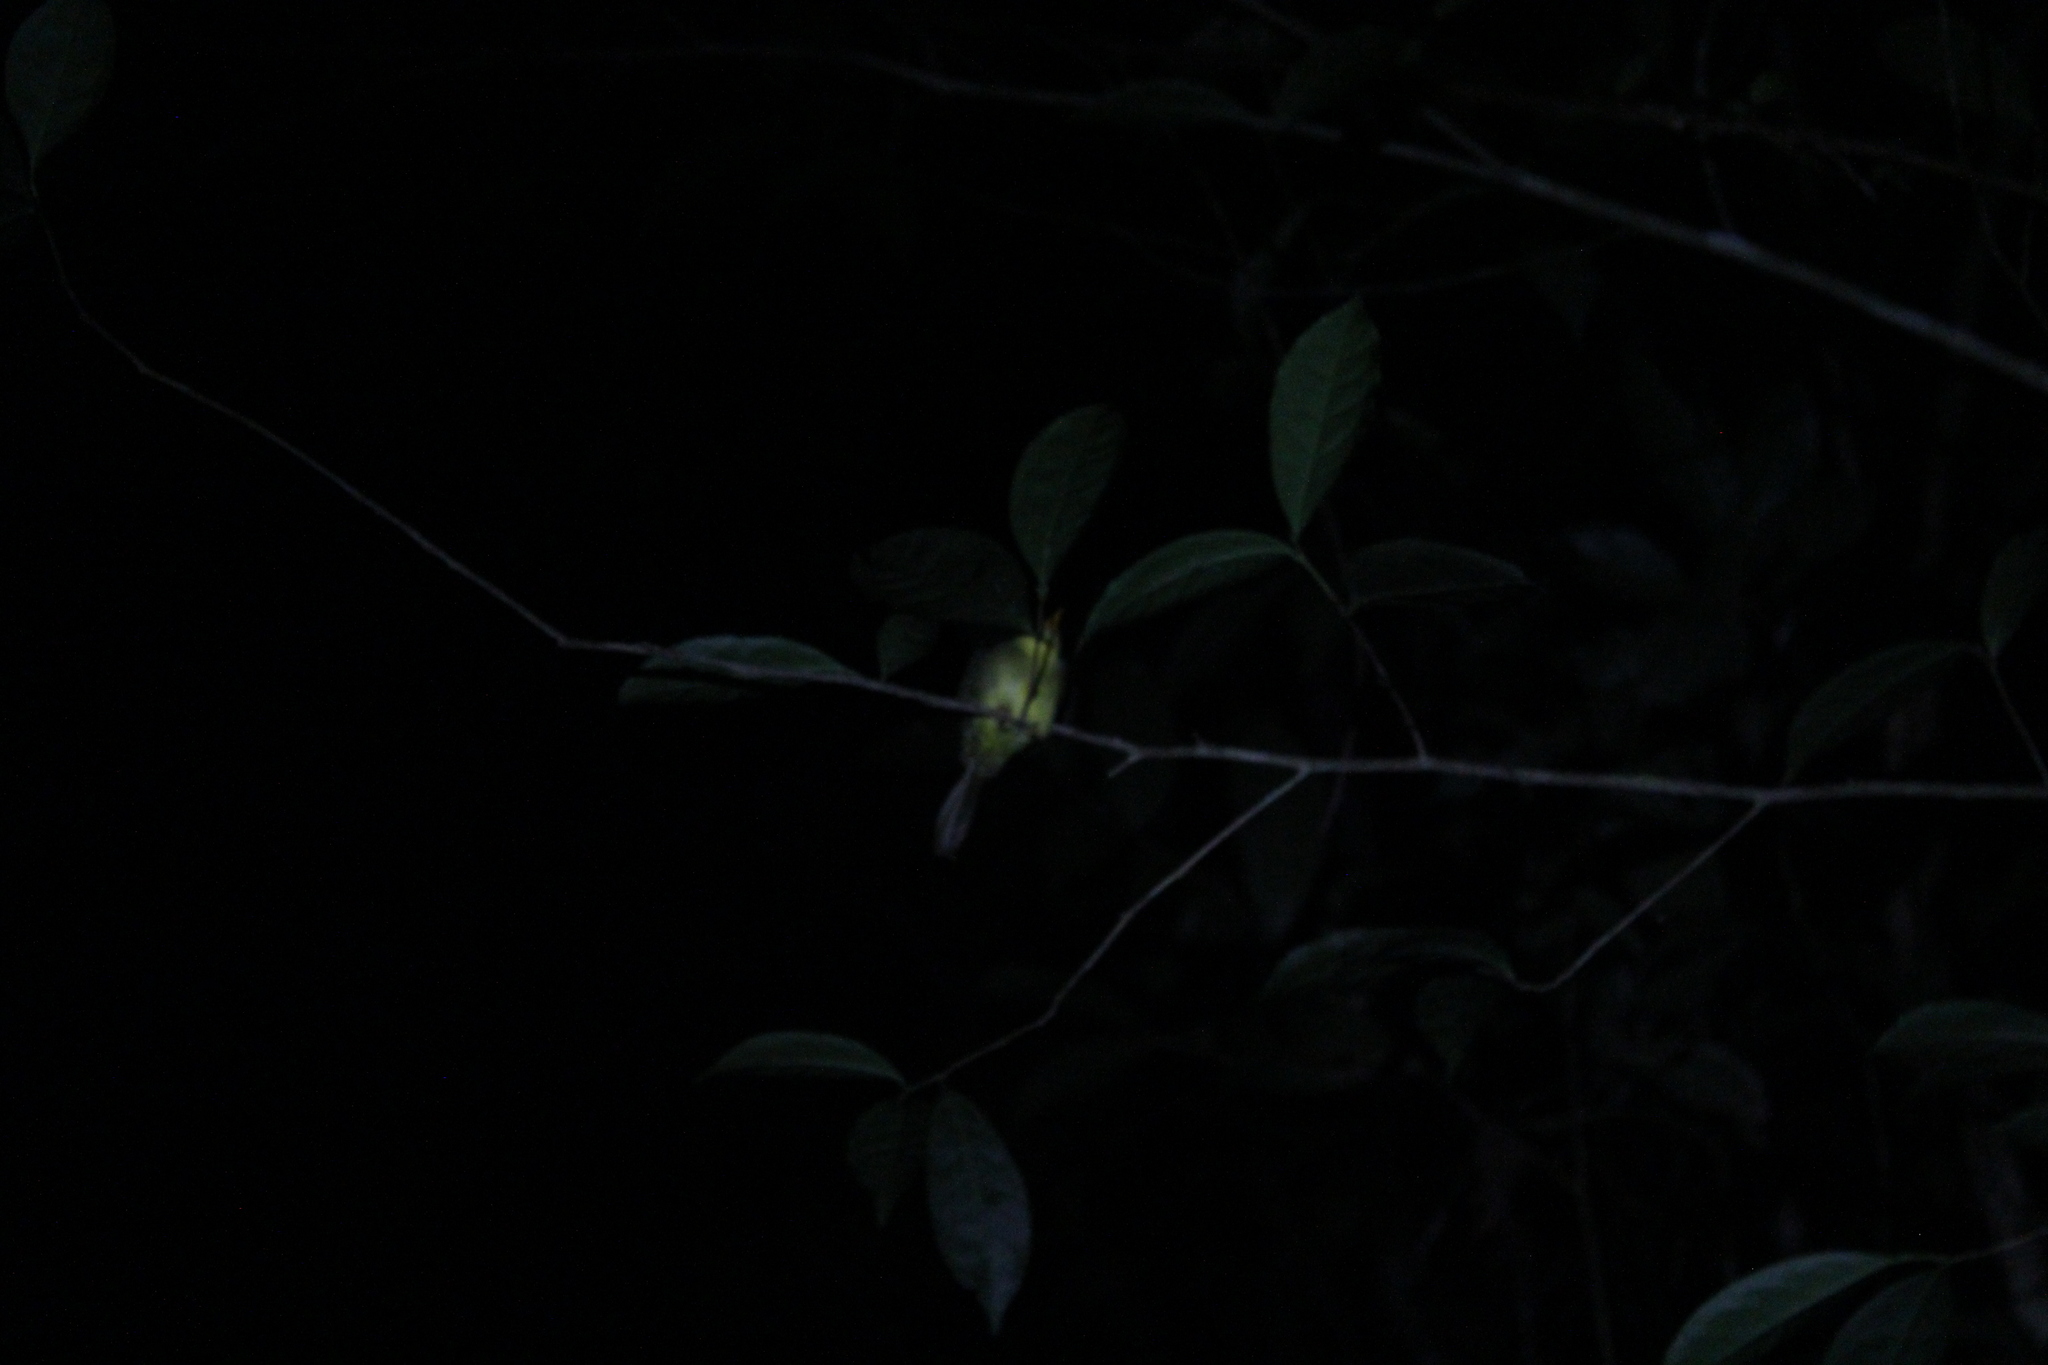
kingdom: Animalia
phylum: Chordata
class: Aves
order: Passeriformes
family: Bernieridae
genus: Bernieria
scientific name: Bernieria madagascariensis
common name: Long-billed bernieria
